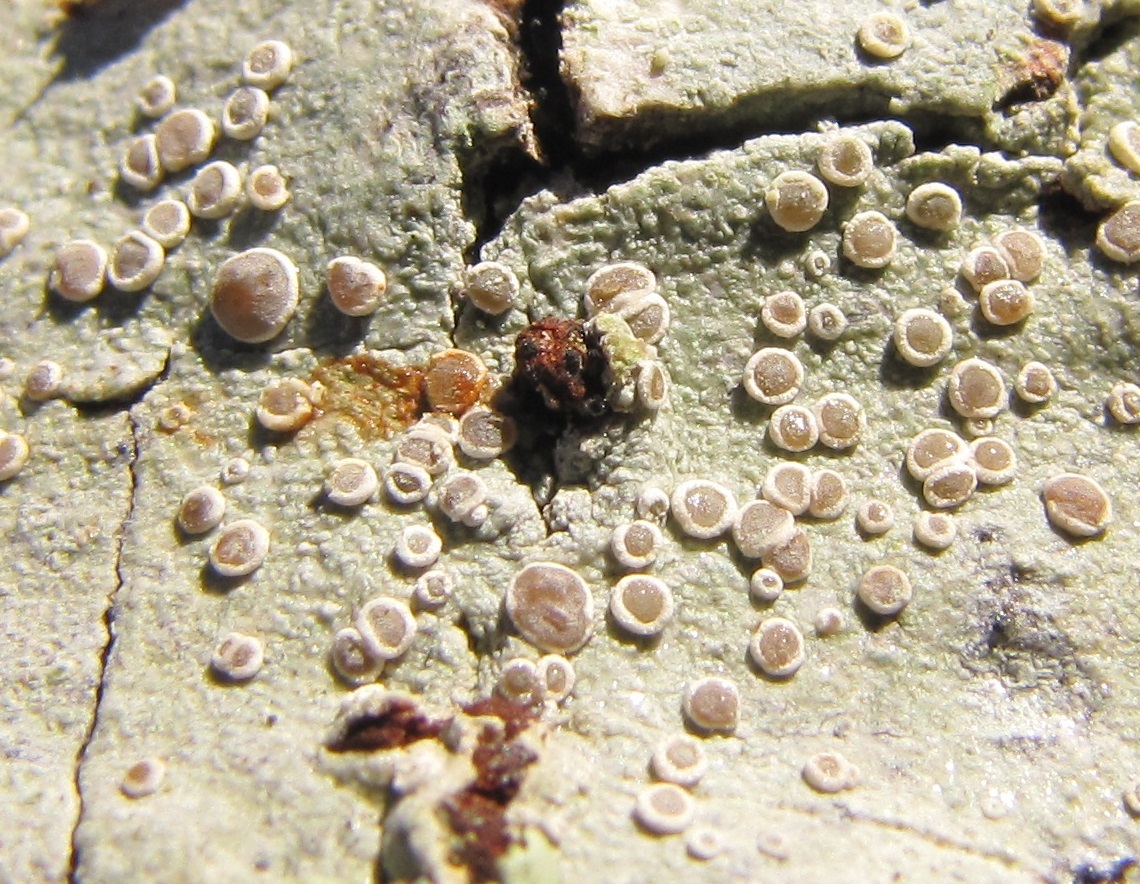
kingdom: Fungi
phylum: Ascomycota
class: Lecanoromycetes
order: Lecanorales
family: Lecanoraceae
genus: Lecanora
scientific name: Lecanora protervula
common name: Lesser dust my discs
